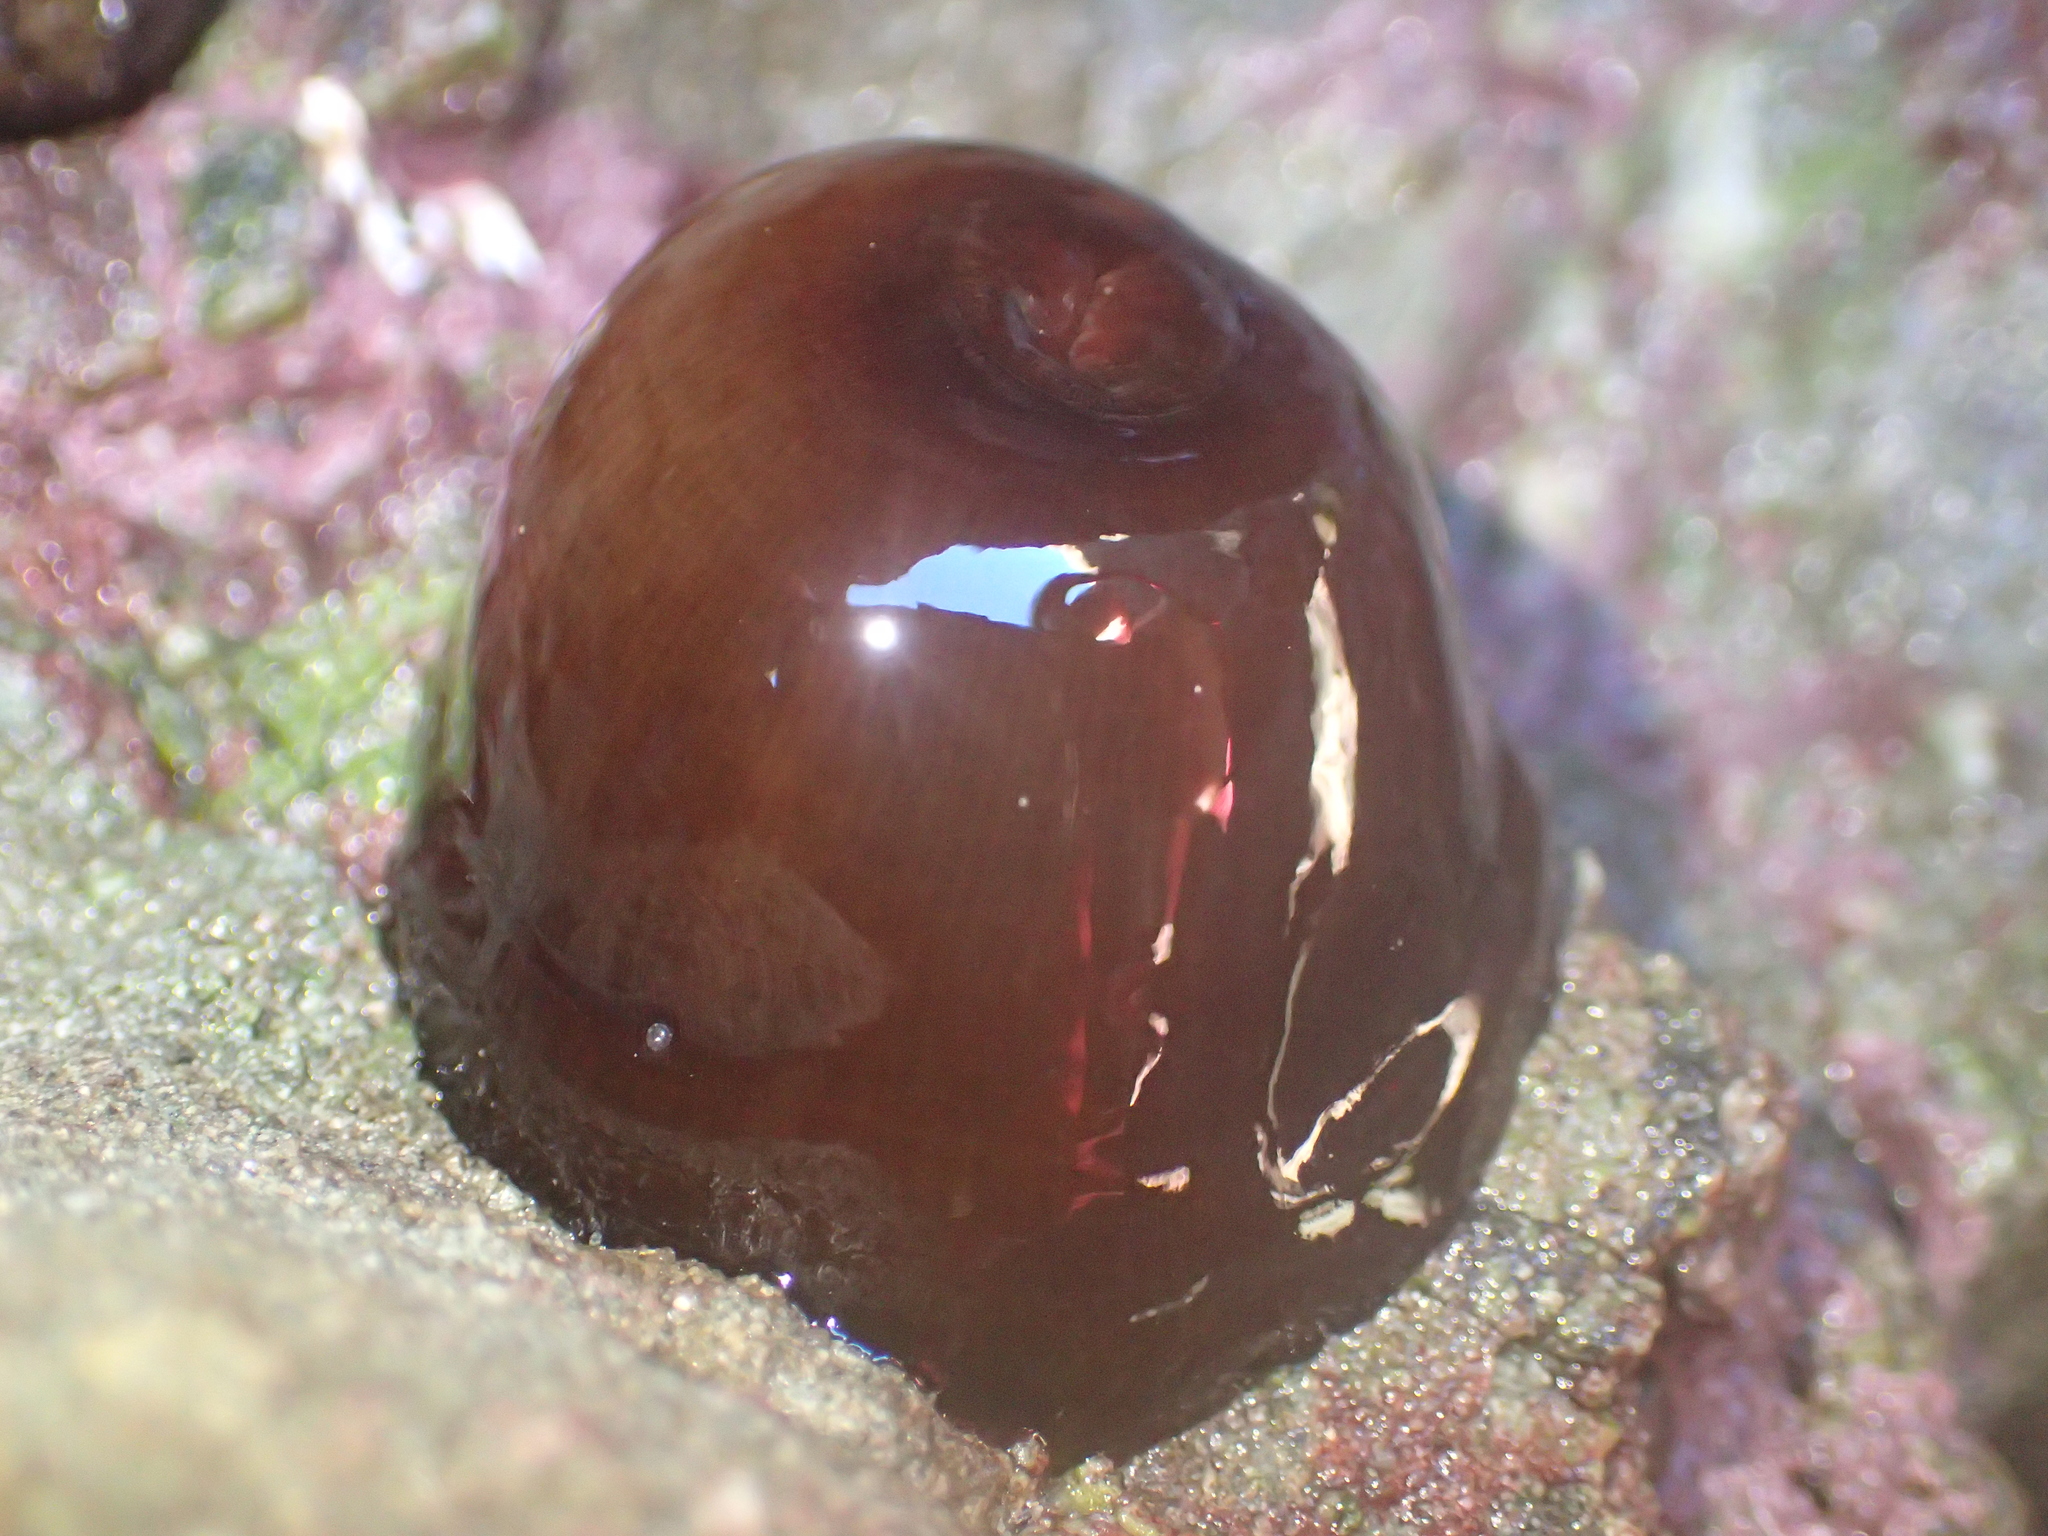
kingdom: Animalia
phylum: Cnidaria
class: Anthozoa
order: Actiniaria
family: Actiniidae
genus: Actinia
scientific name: Actinia tenebrosa
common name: Waratah anemone
